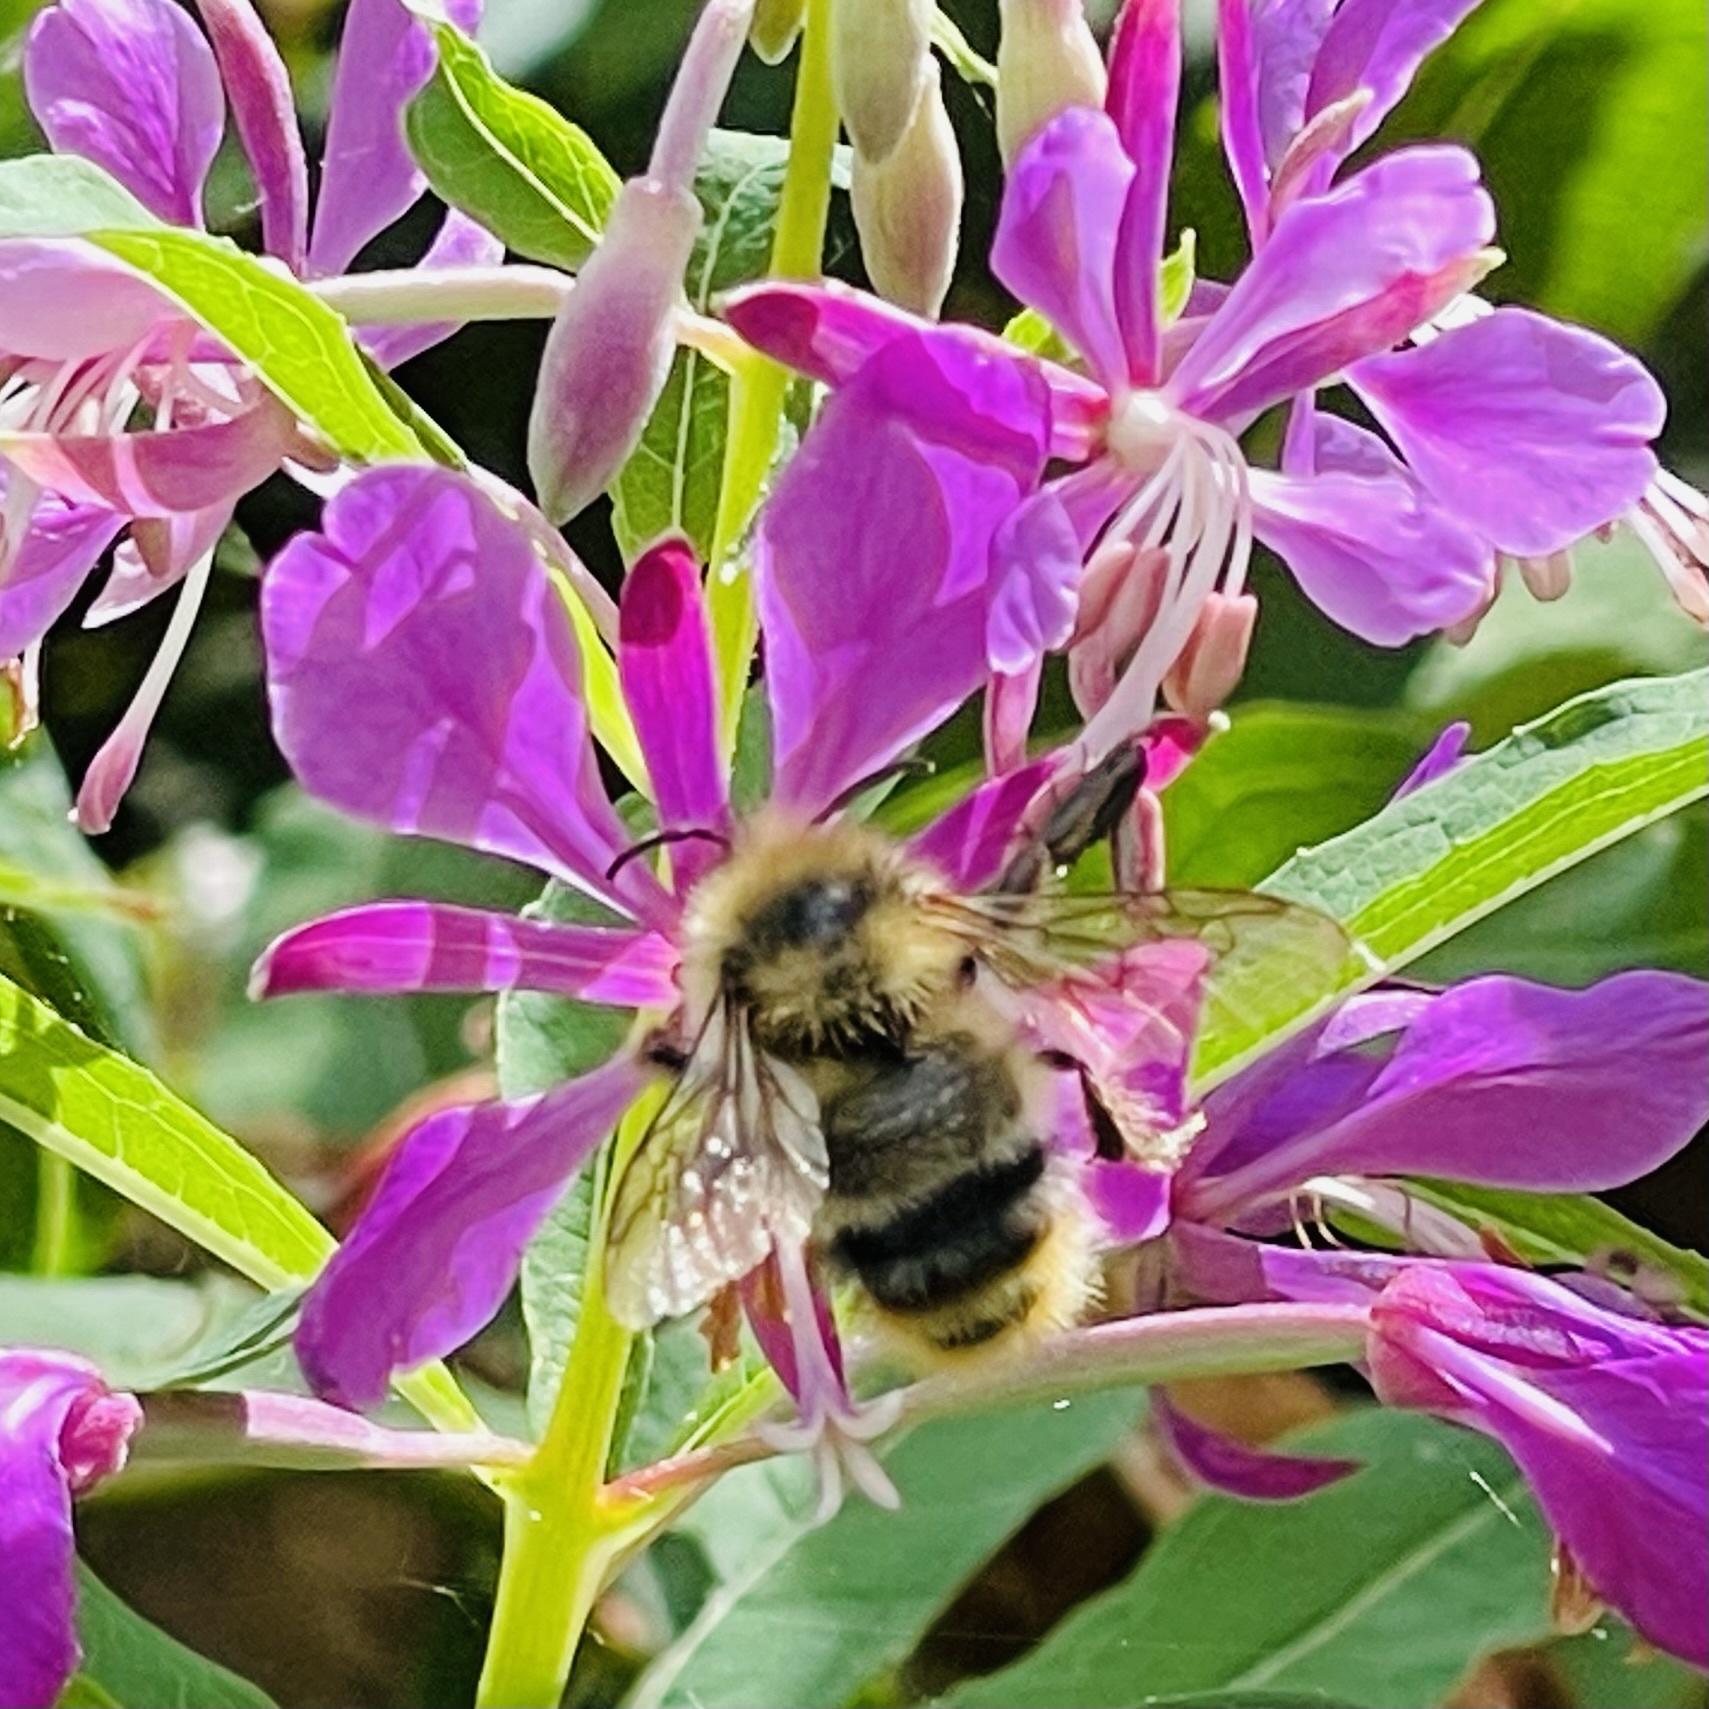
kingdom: Animalia
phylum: Arthropoda
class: Insecta
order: Hymenoptera
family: Apidae
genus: Bombus
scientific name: Bombus mixtus
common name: Fuzzy-horned bumble bee
